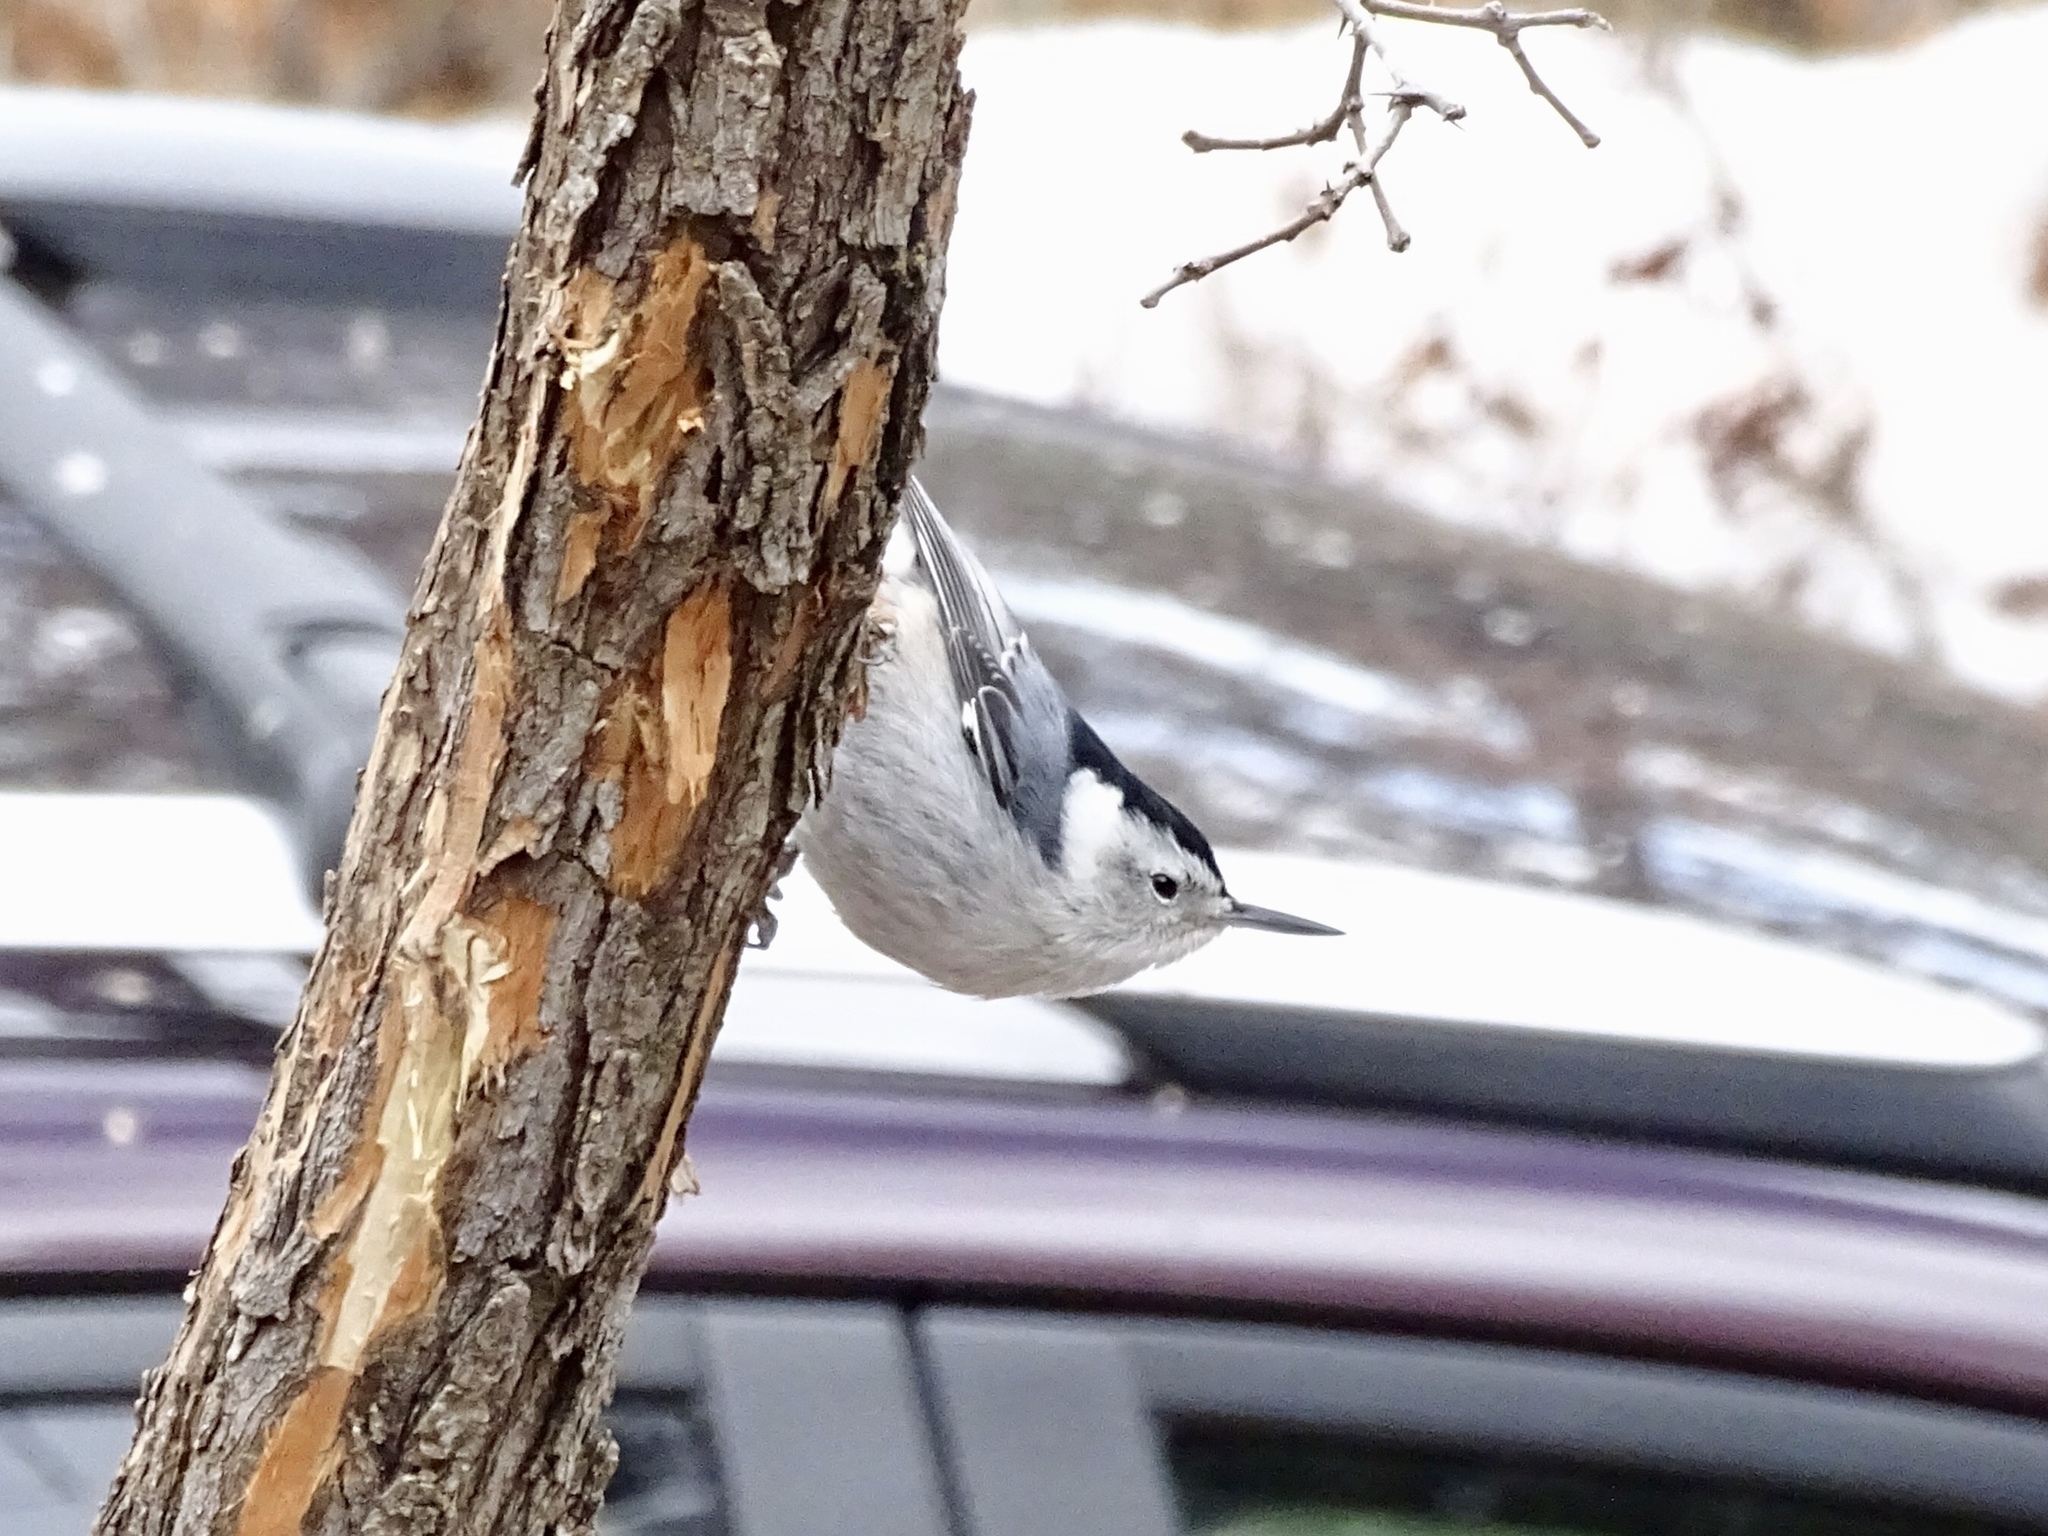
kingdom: Animalia
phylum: Chordata
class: Aves
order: Passeriformes
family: Sittidae
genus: Sitta
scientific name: Sitta carolinensis
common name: White-breasted nuthatch
